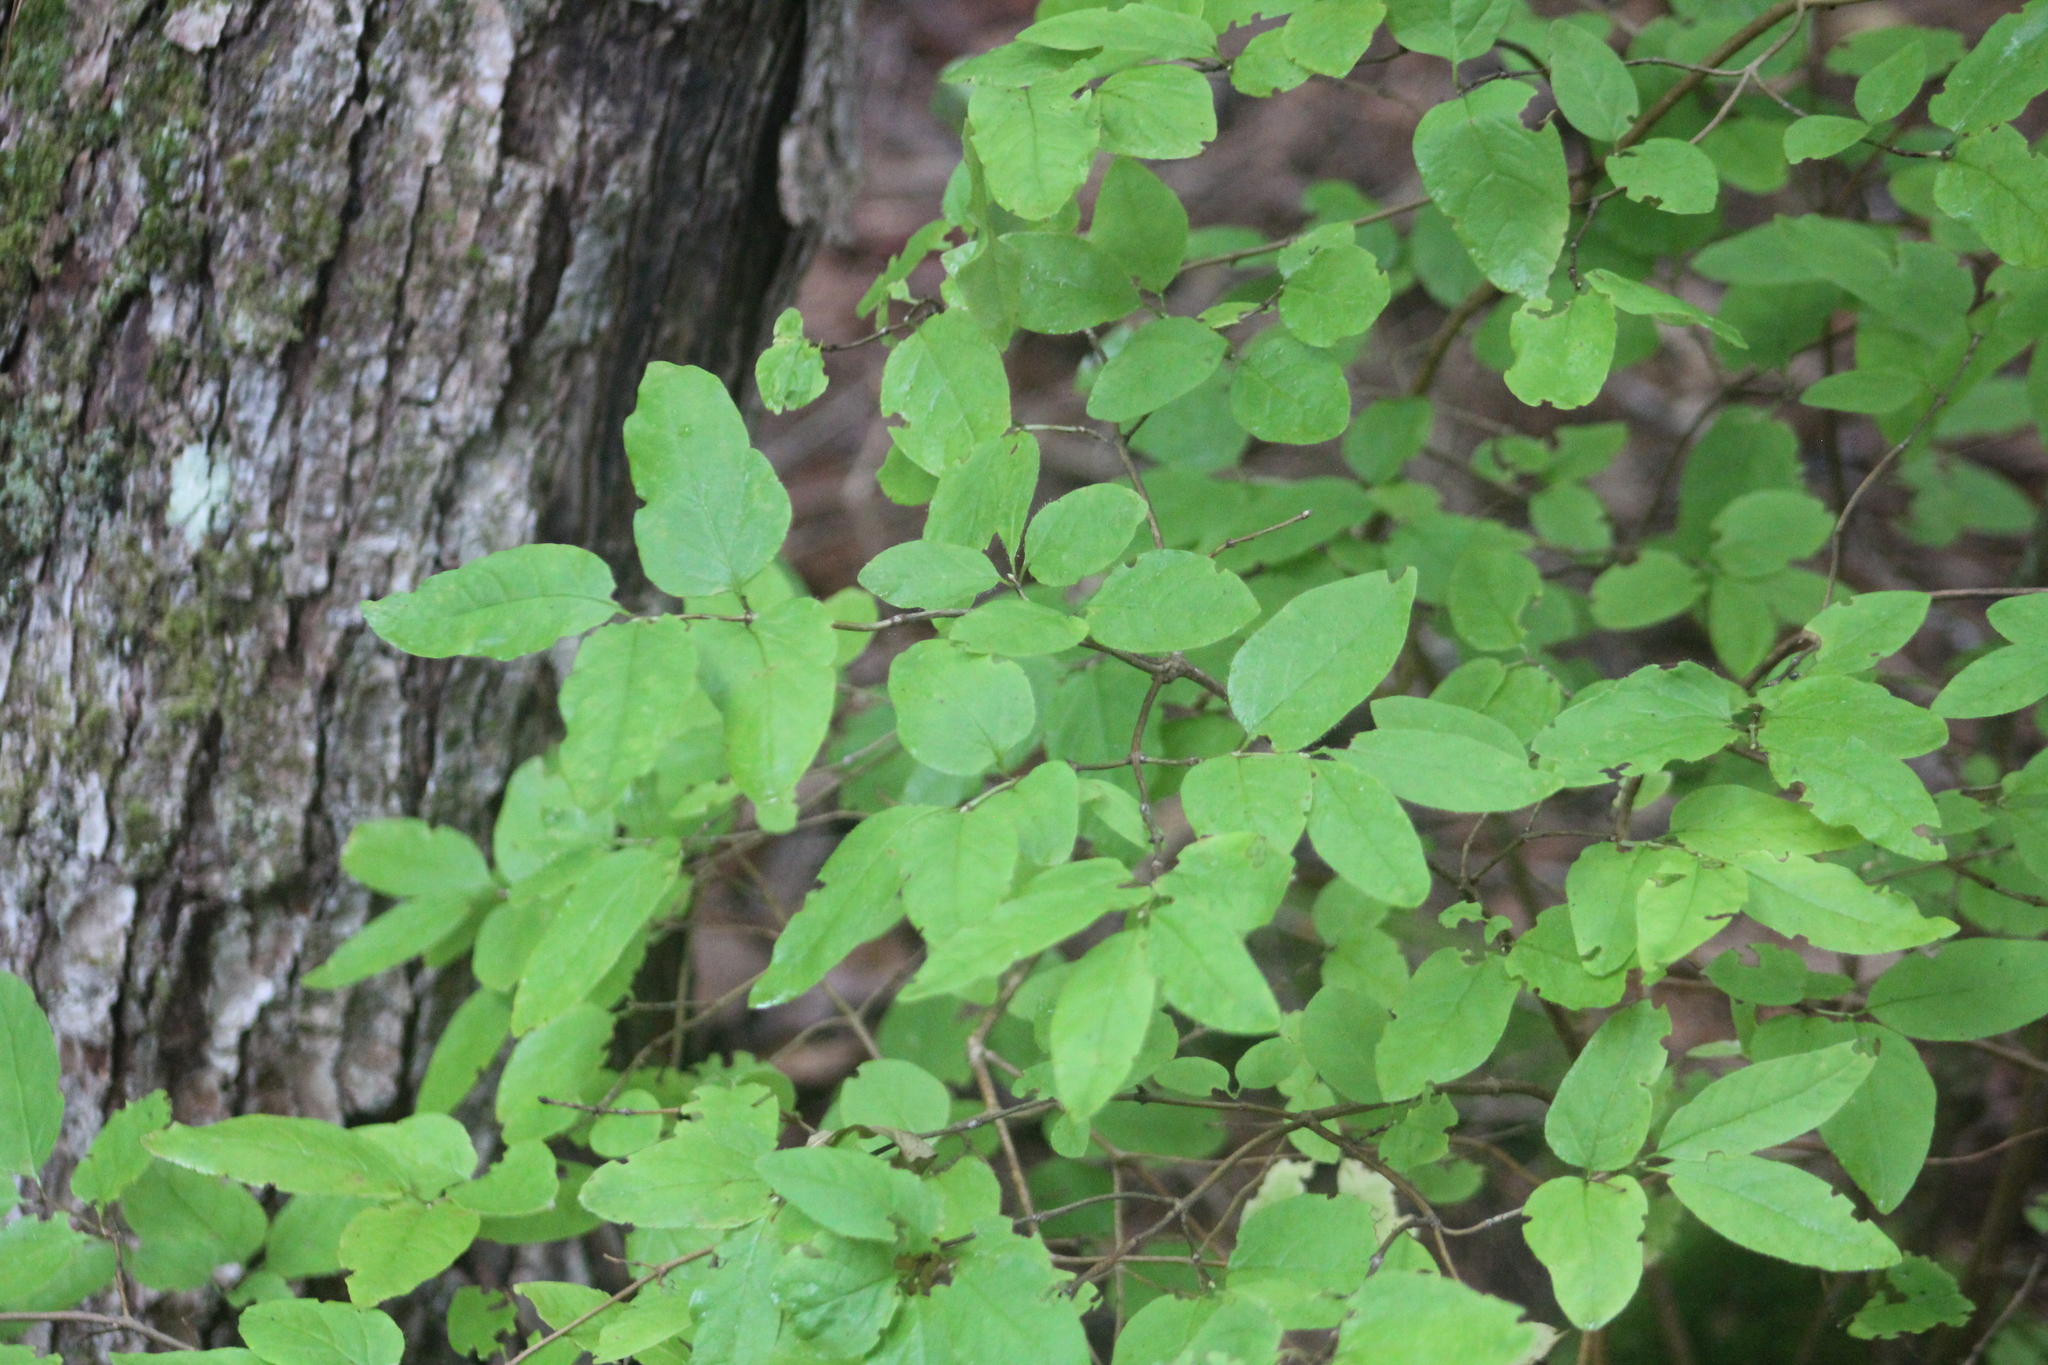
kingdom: Plantae
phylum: Tracheophyta
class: Magnoliopsida
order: Dipsacales
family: Caprifoliaceae
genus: Lonicera
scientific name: Lonicera canadensis
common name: American fly-honeysuckle
